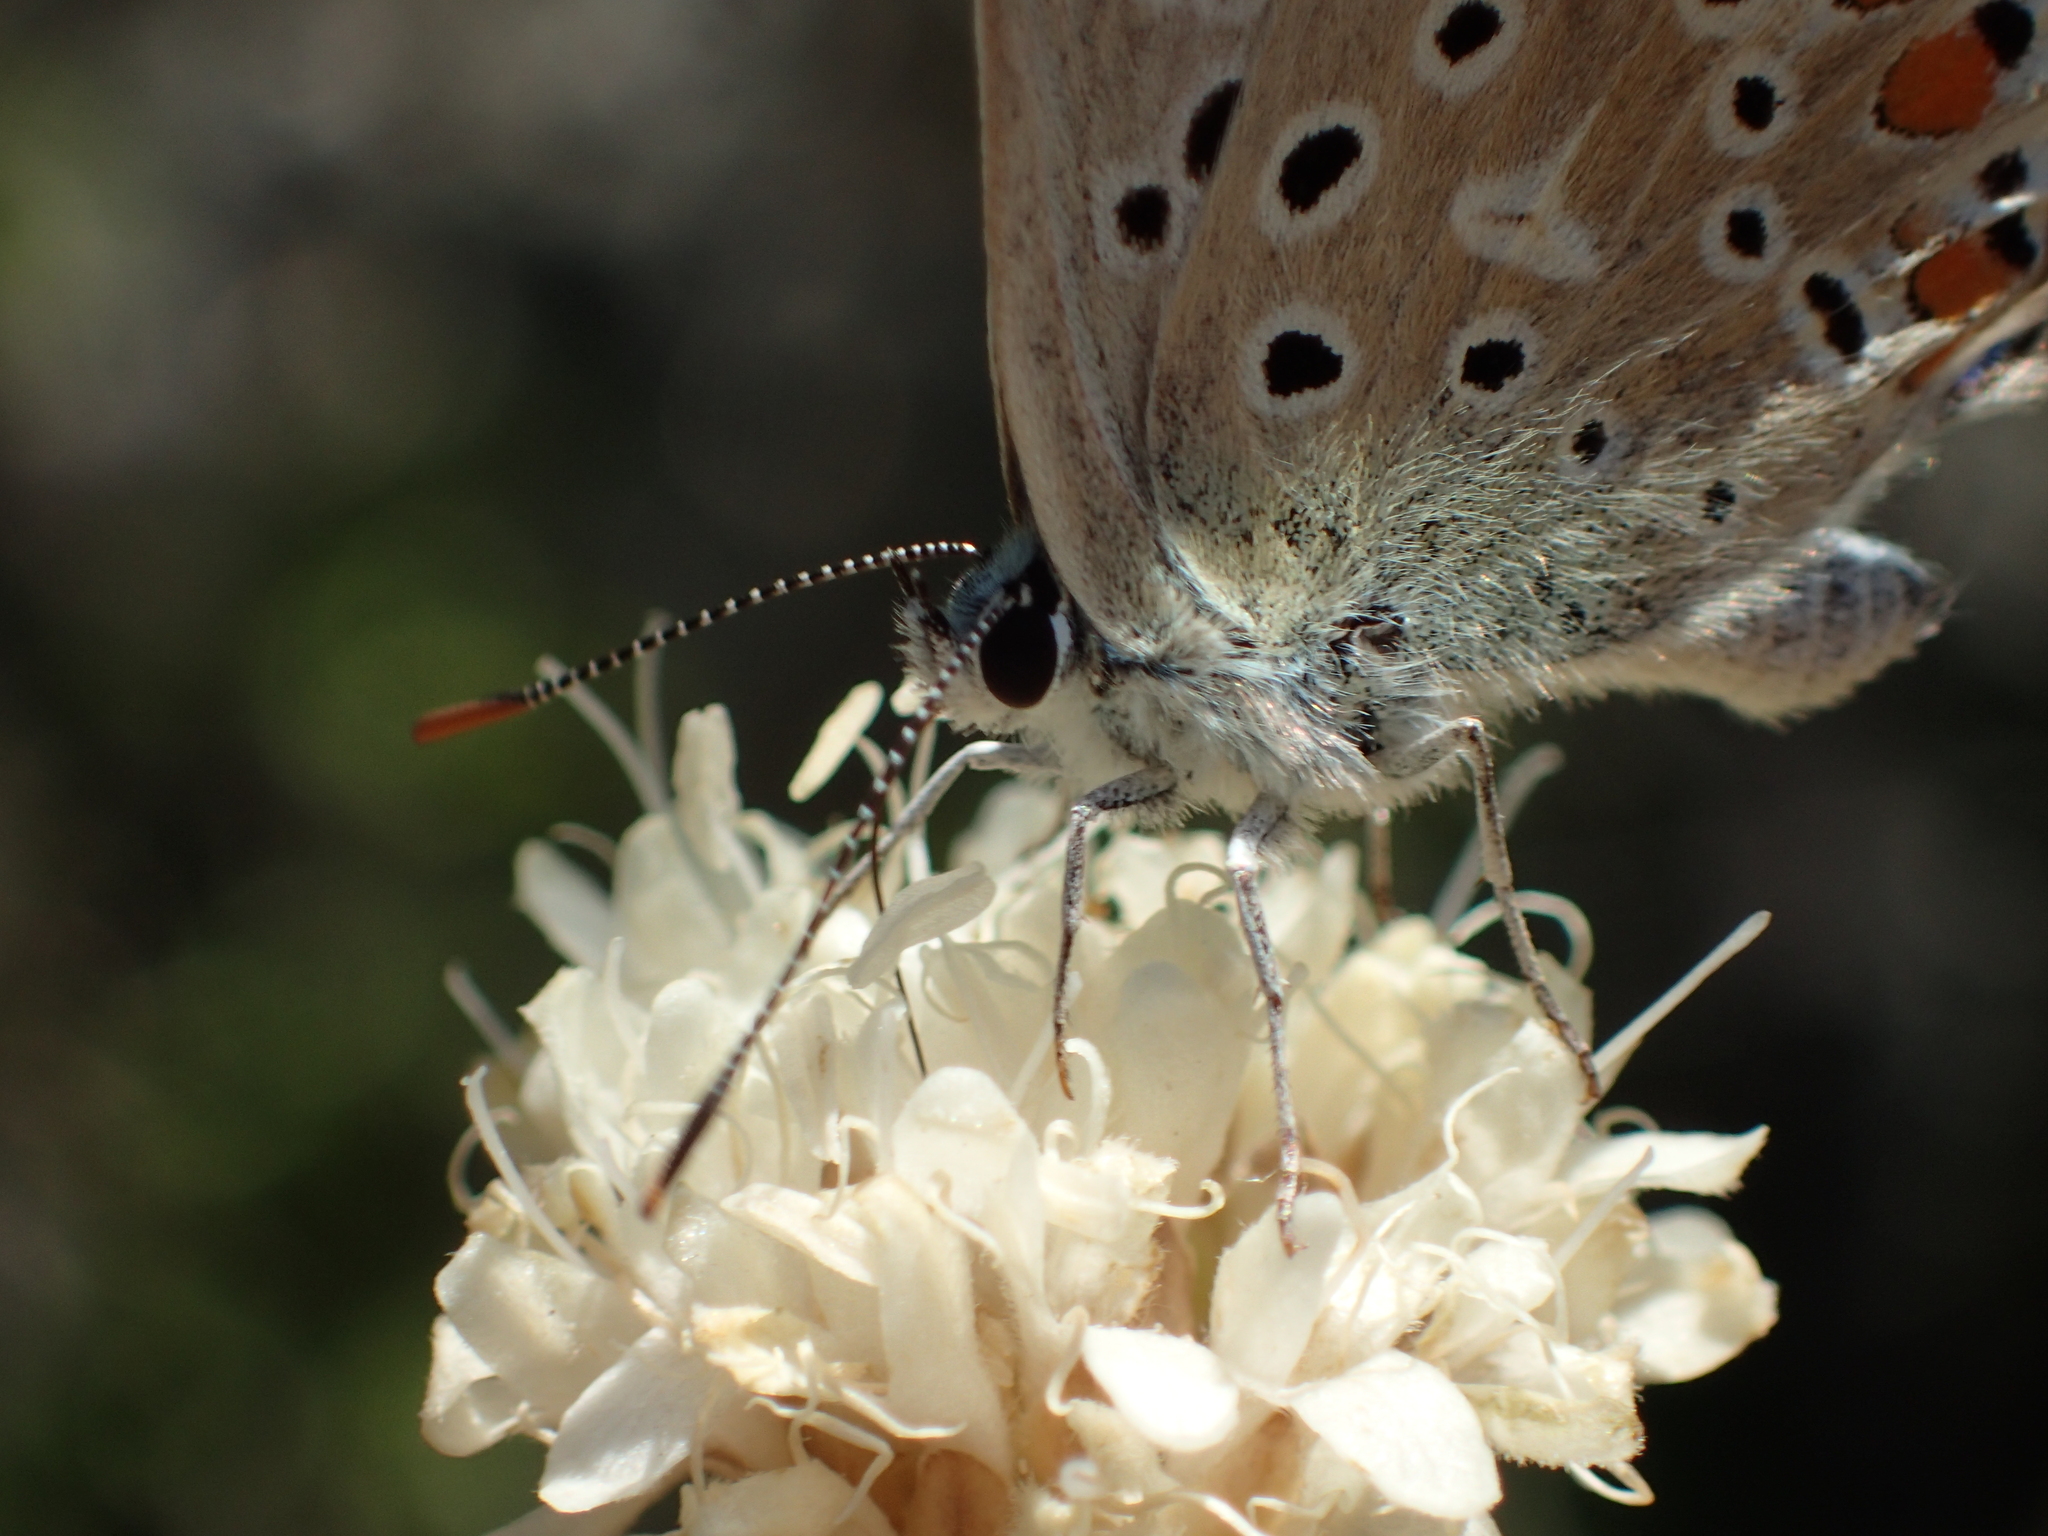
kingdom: Animalia
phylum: Arthropoda
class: Insecta
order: Lepidoptera
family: Lycaenidae
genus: Lysandra
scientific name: Lysandra bellargus
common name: Adonis blue
